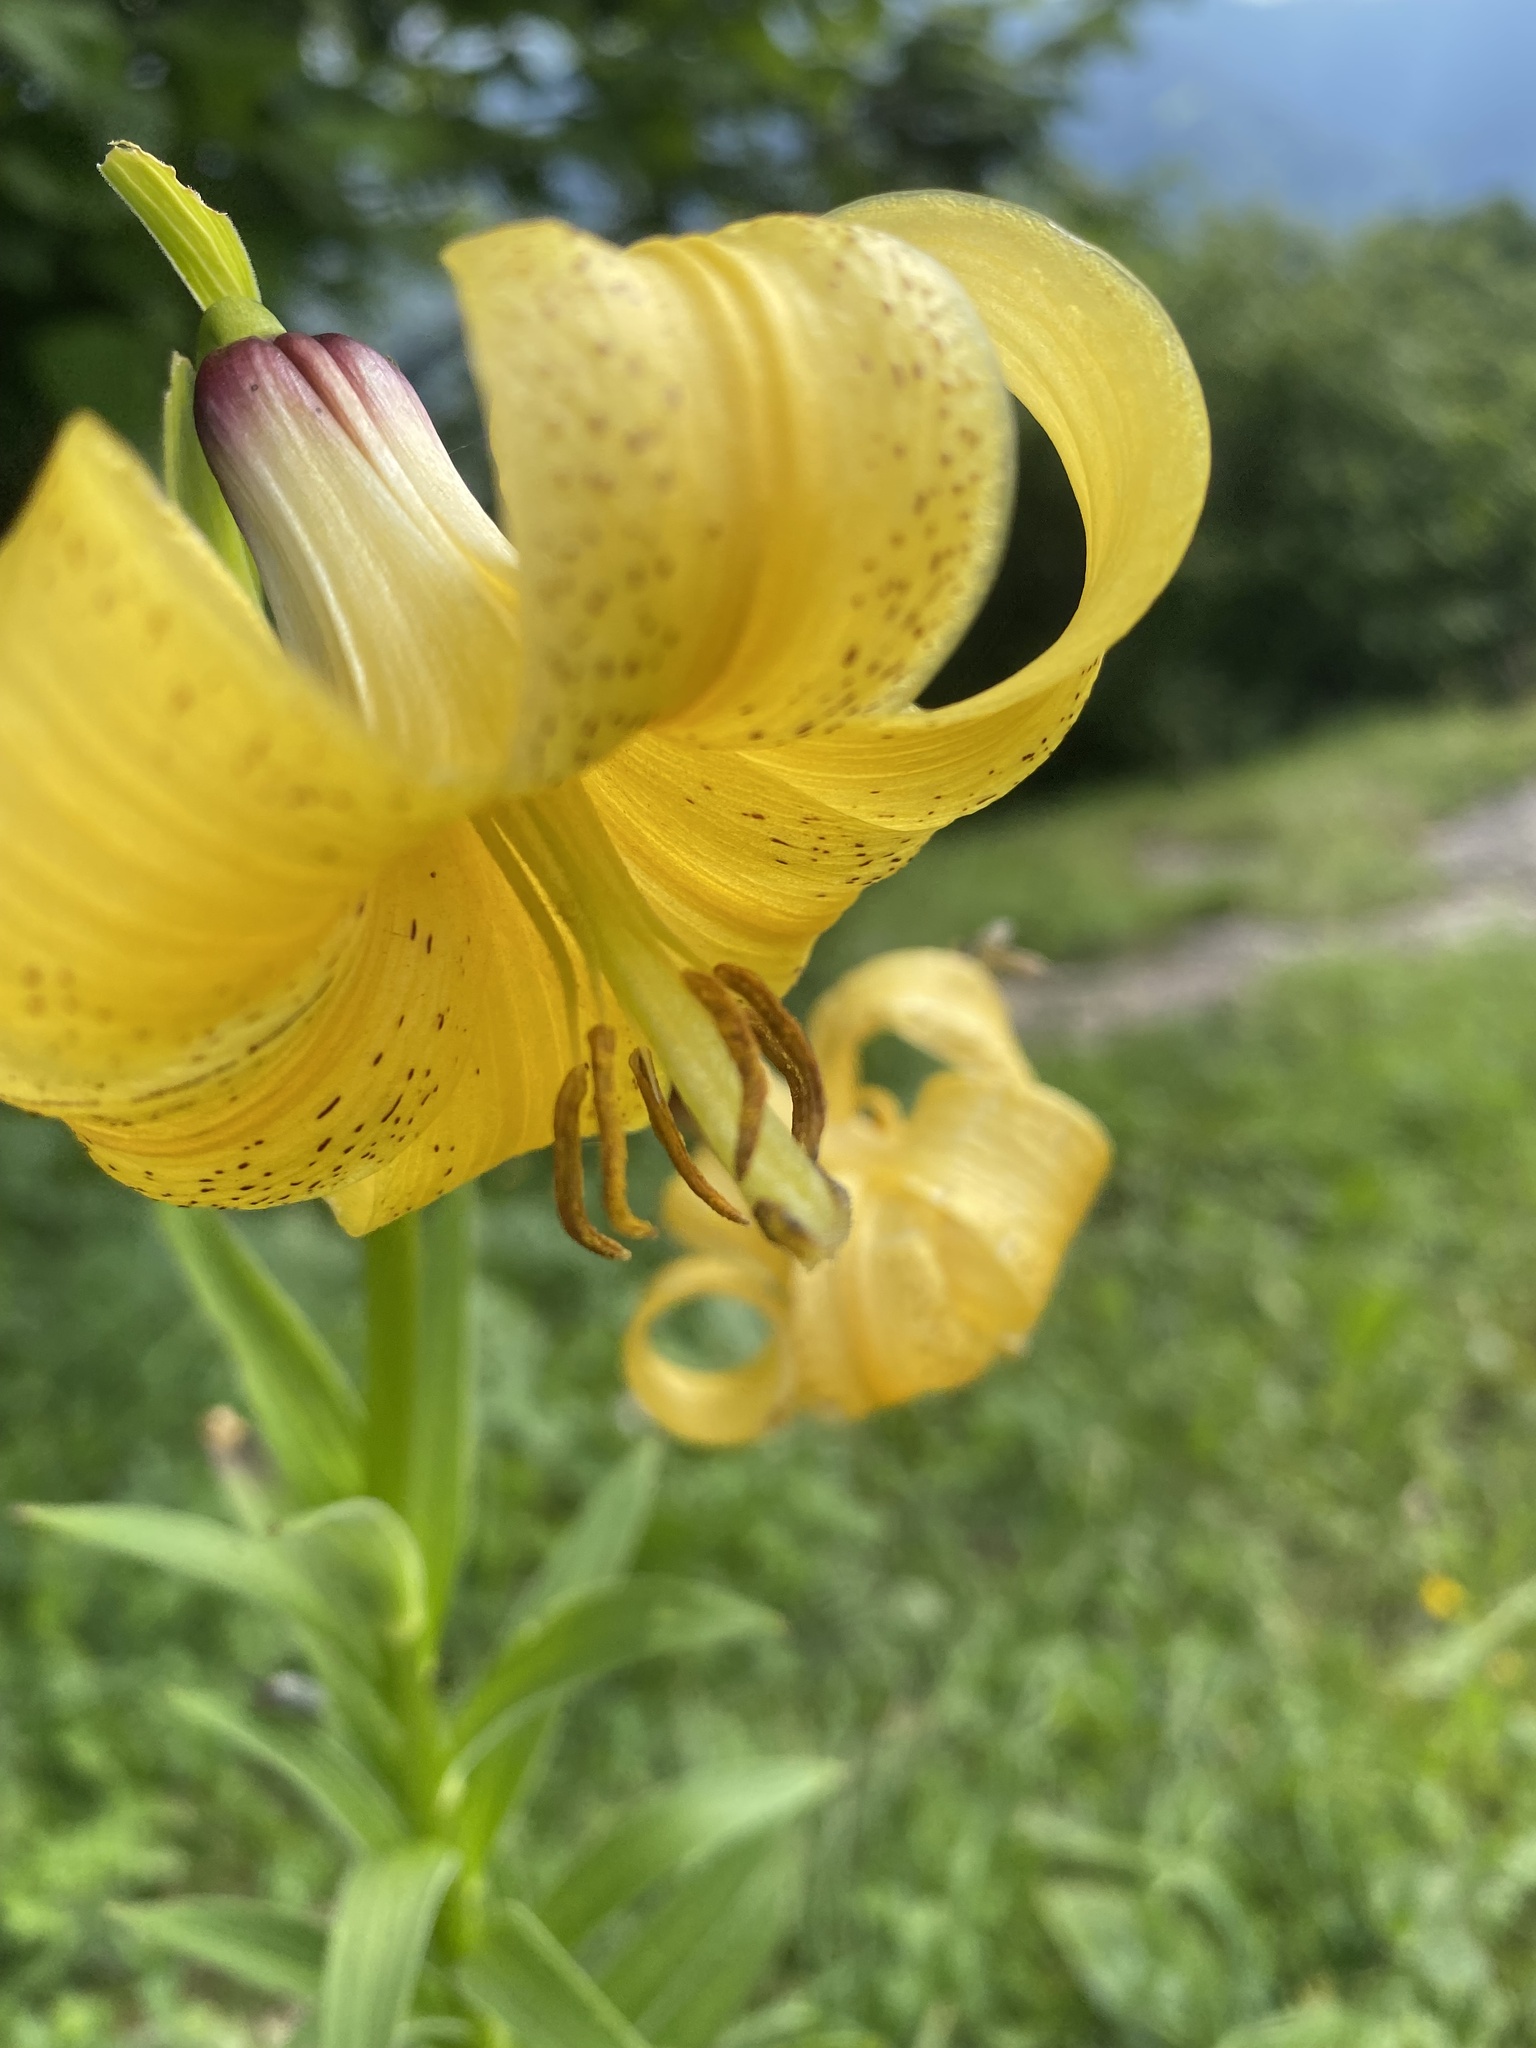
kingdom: Plantae
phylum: Tracheophyta
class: Liliopsida
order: Liliales
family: Liliaceae
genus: Lilium
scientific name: Lilium monadelphum
